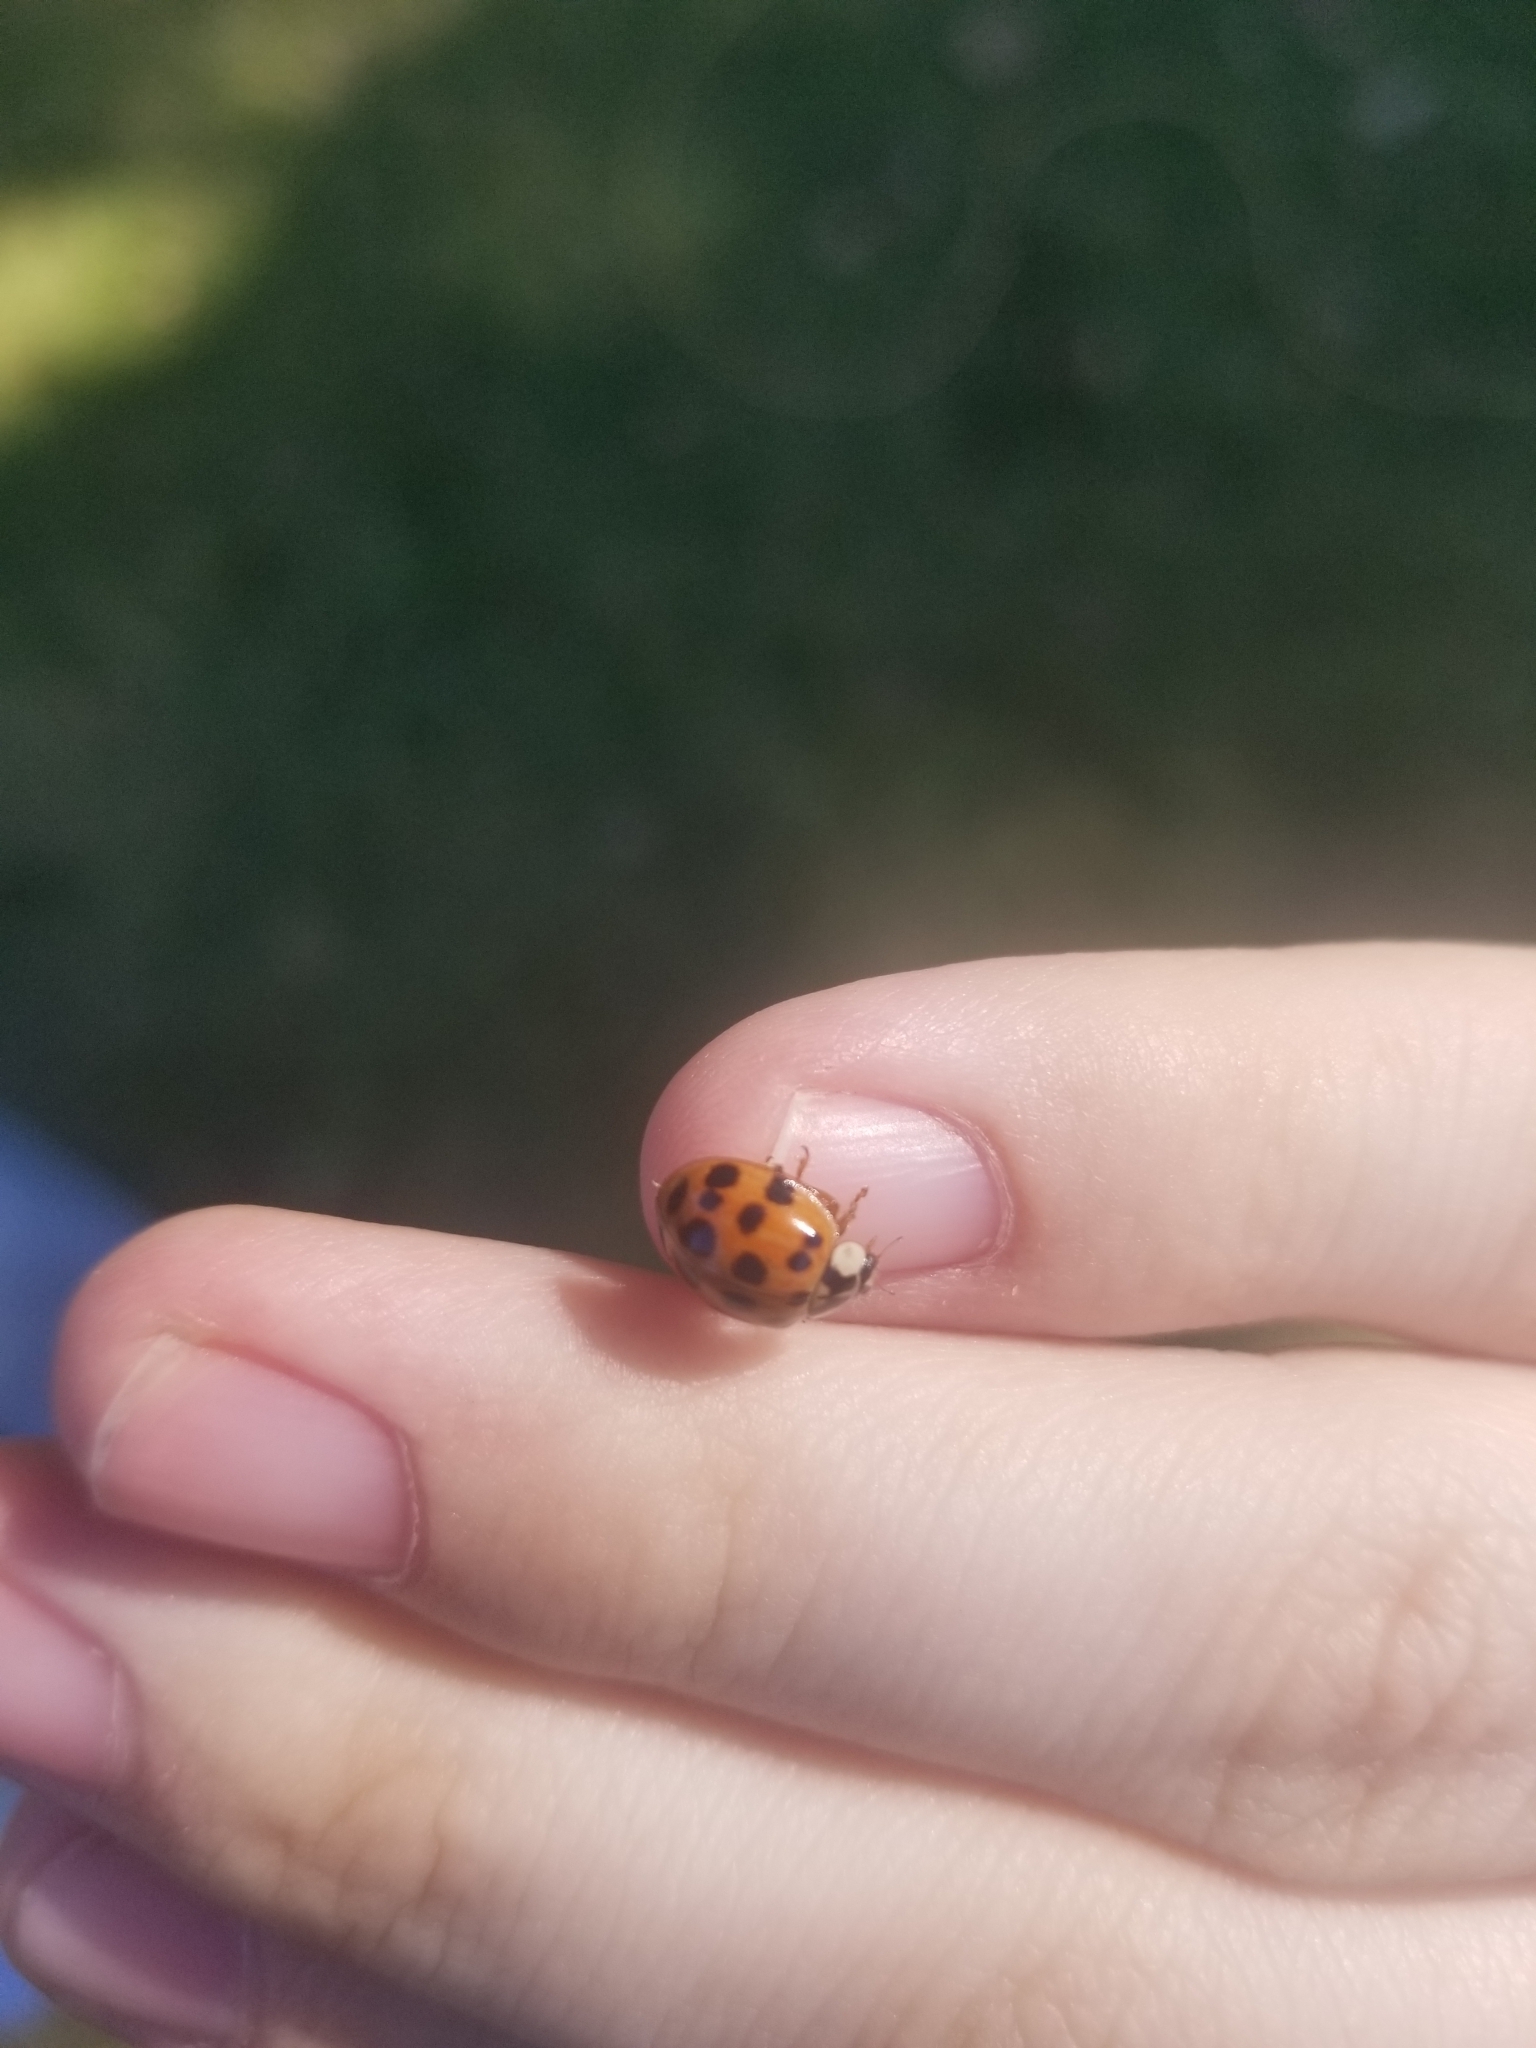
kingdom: Animalia
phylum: Arthropoda
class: Insecta
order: Coleoptera
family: Coccinellidae
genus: Harmonia
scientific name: Harmonia axyridis
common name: Harlequin ladybird
